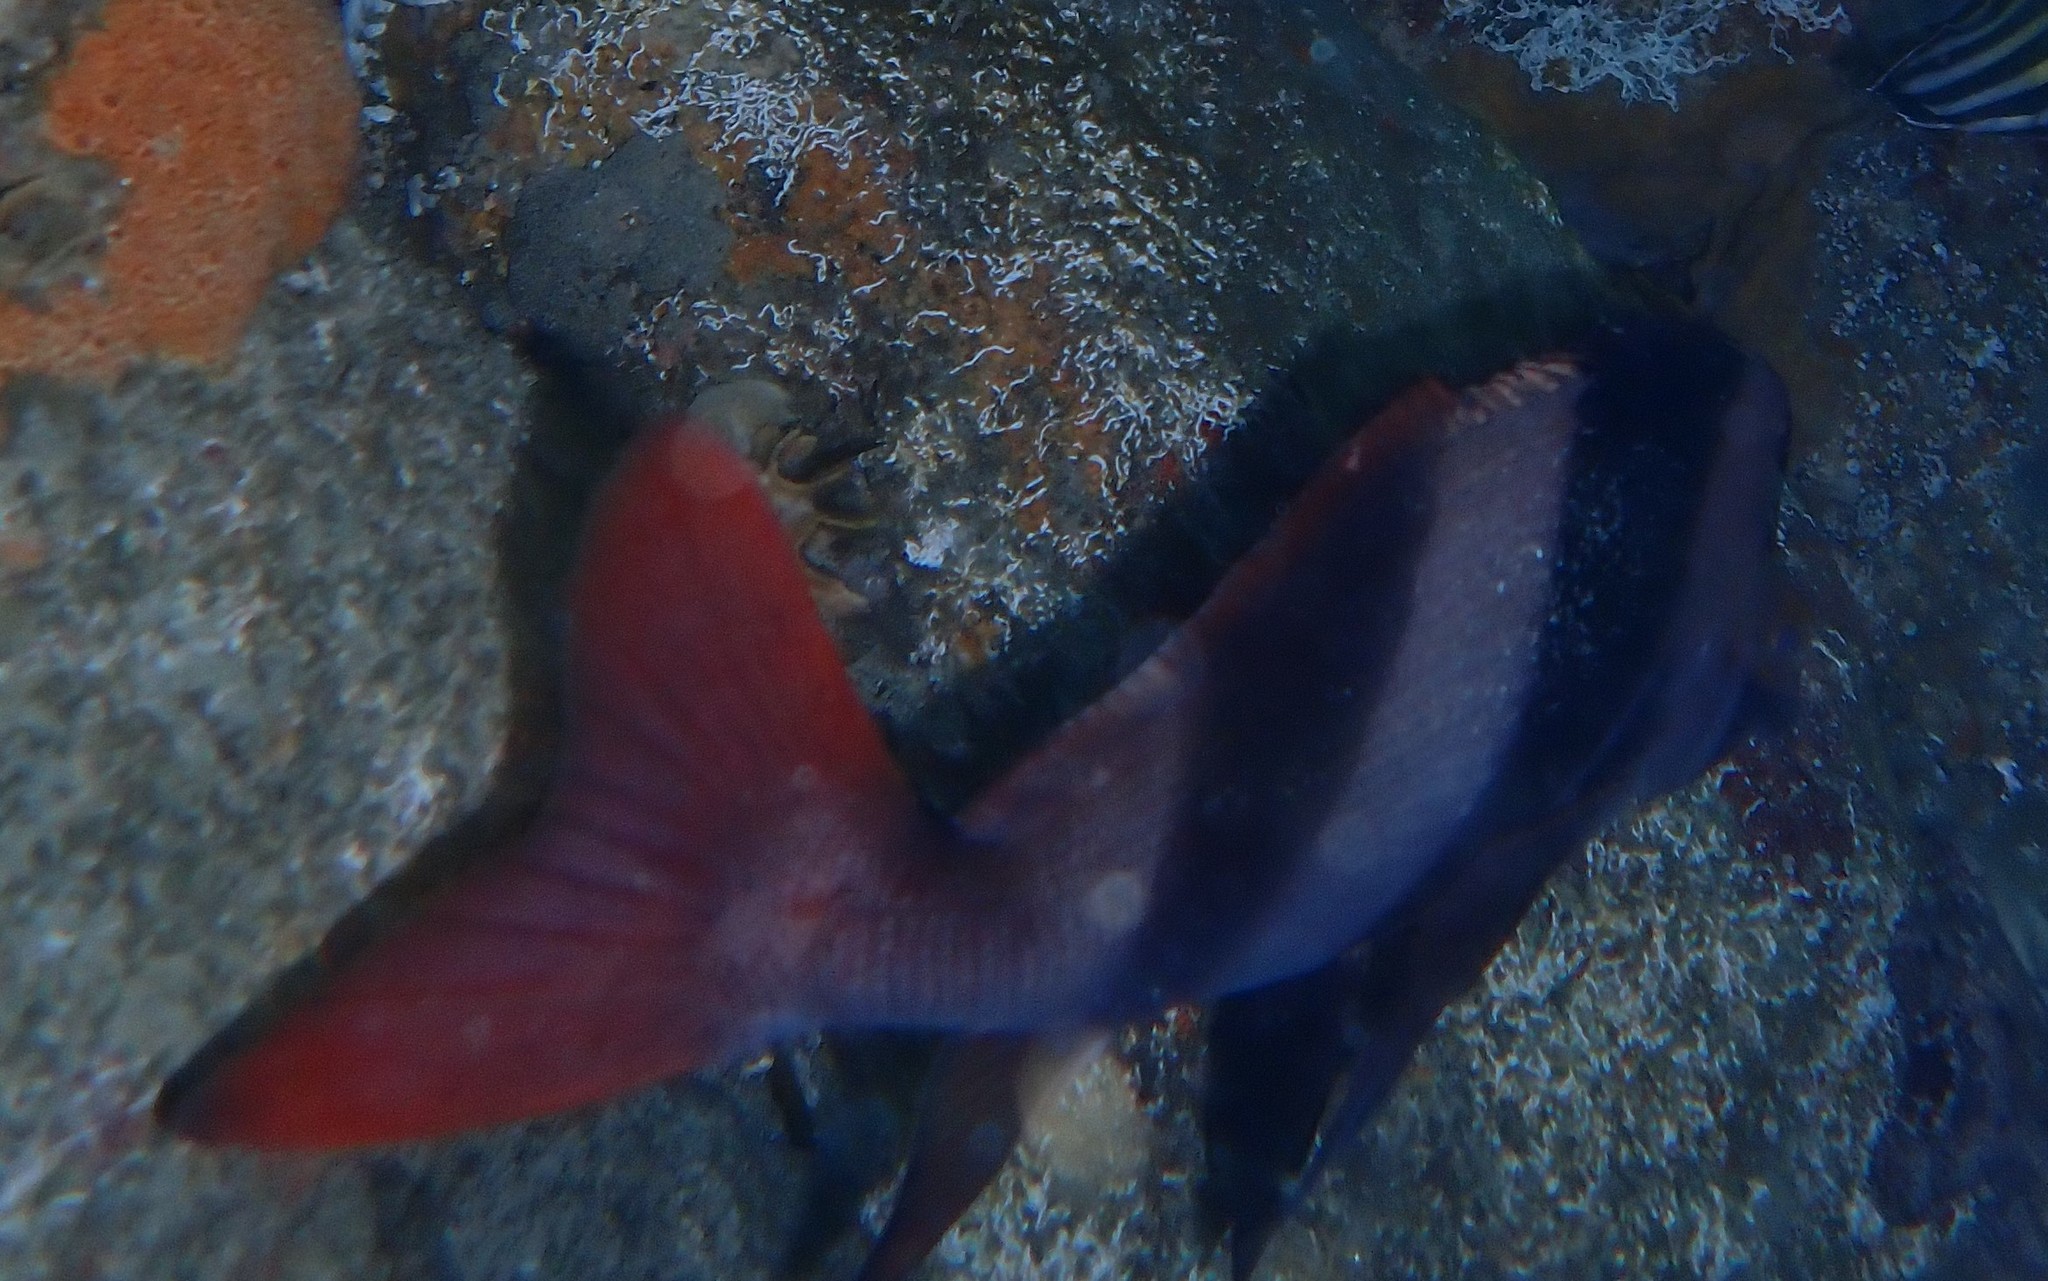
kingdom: Animalia
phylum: Chordata
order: Perciformes
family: Latridae
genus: Pseudogoniistius
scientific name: Pseudogoniistius nigripes
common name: Black-striped morwong
